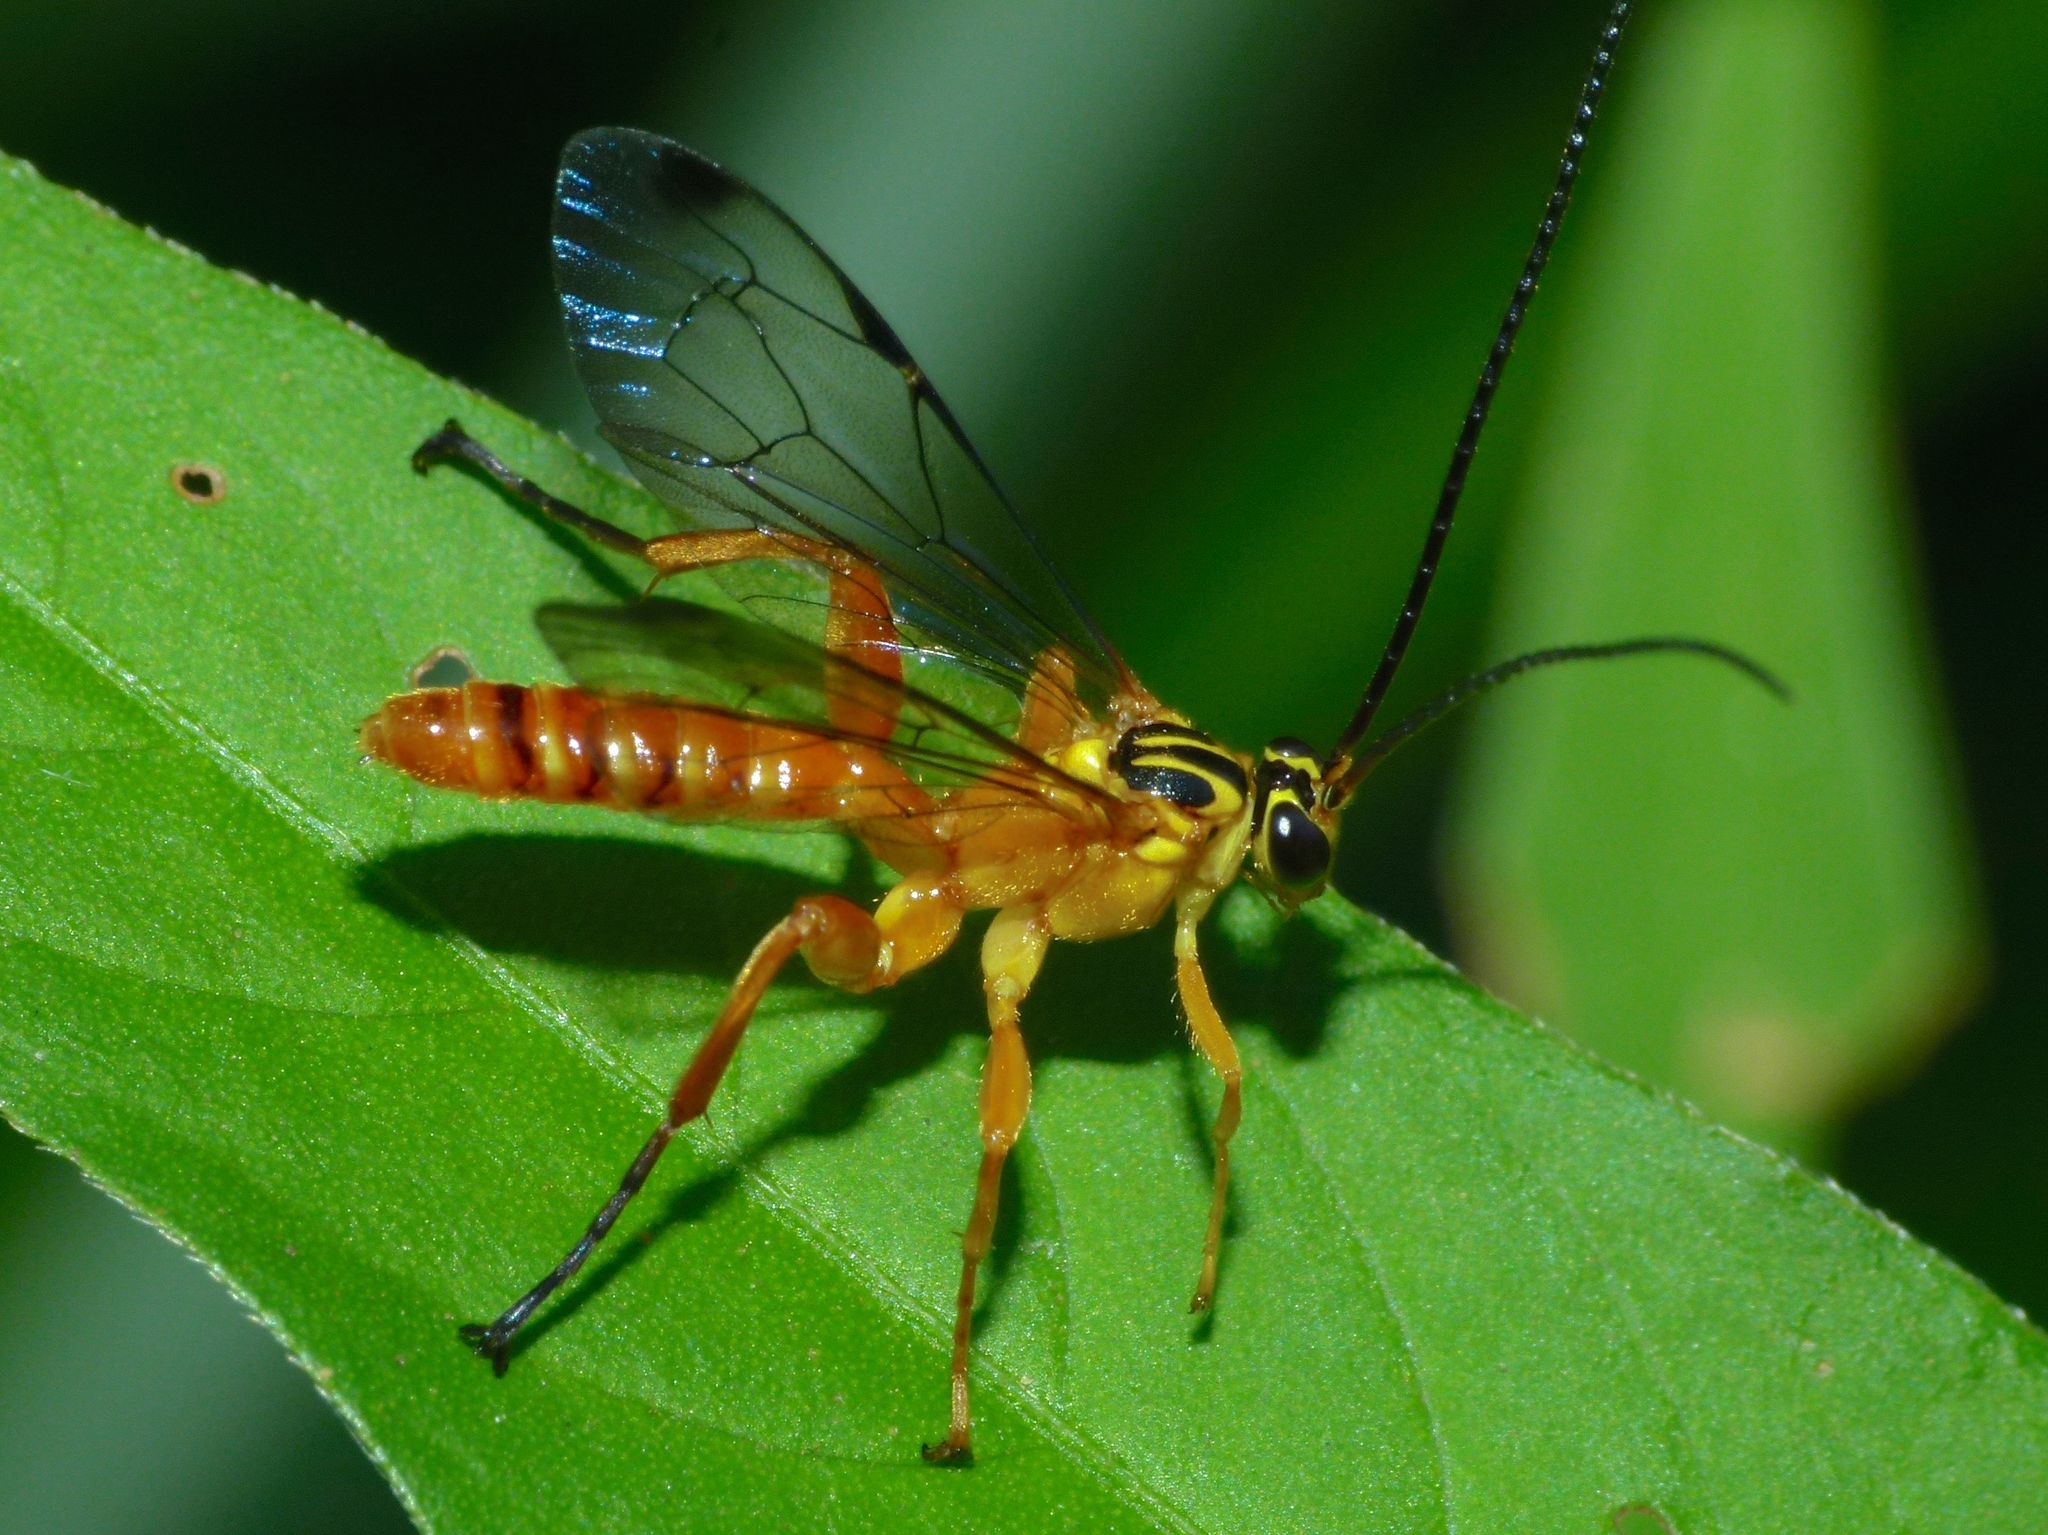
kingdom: Animalia
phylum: Arthropoda
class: Insecta
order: Hymenoptera
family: Ichneumonidae
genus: Echthromorpha
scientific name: Echthromorpha agrestoria
